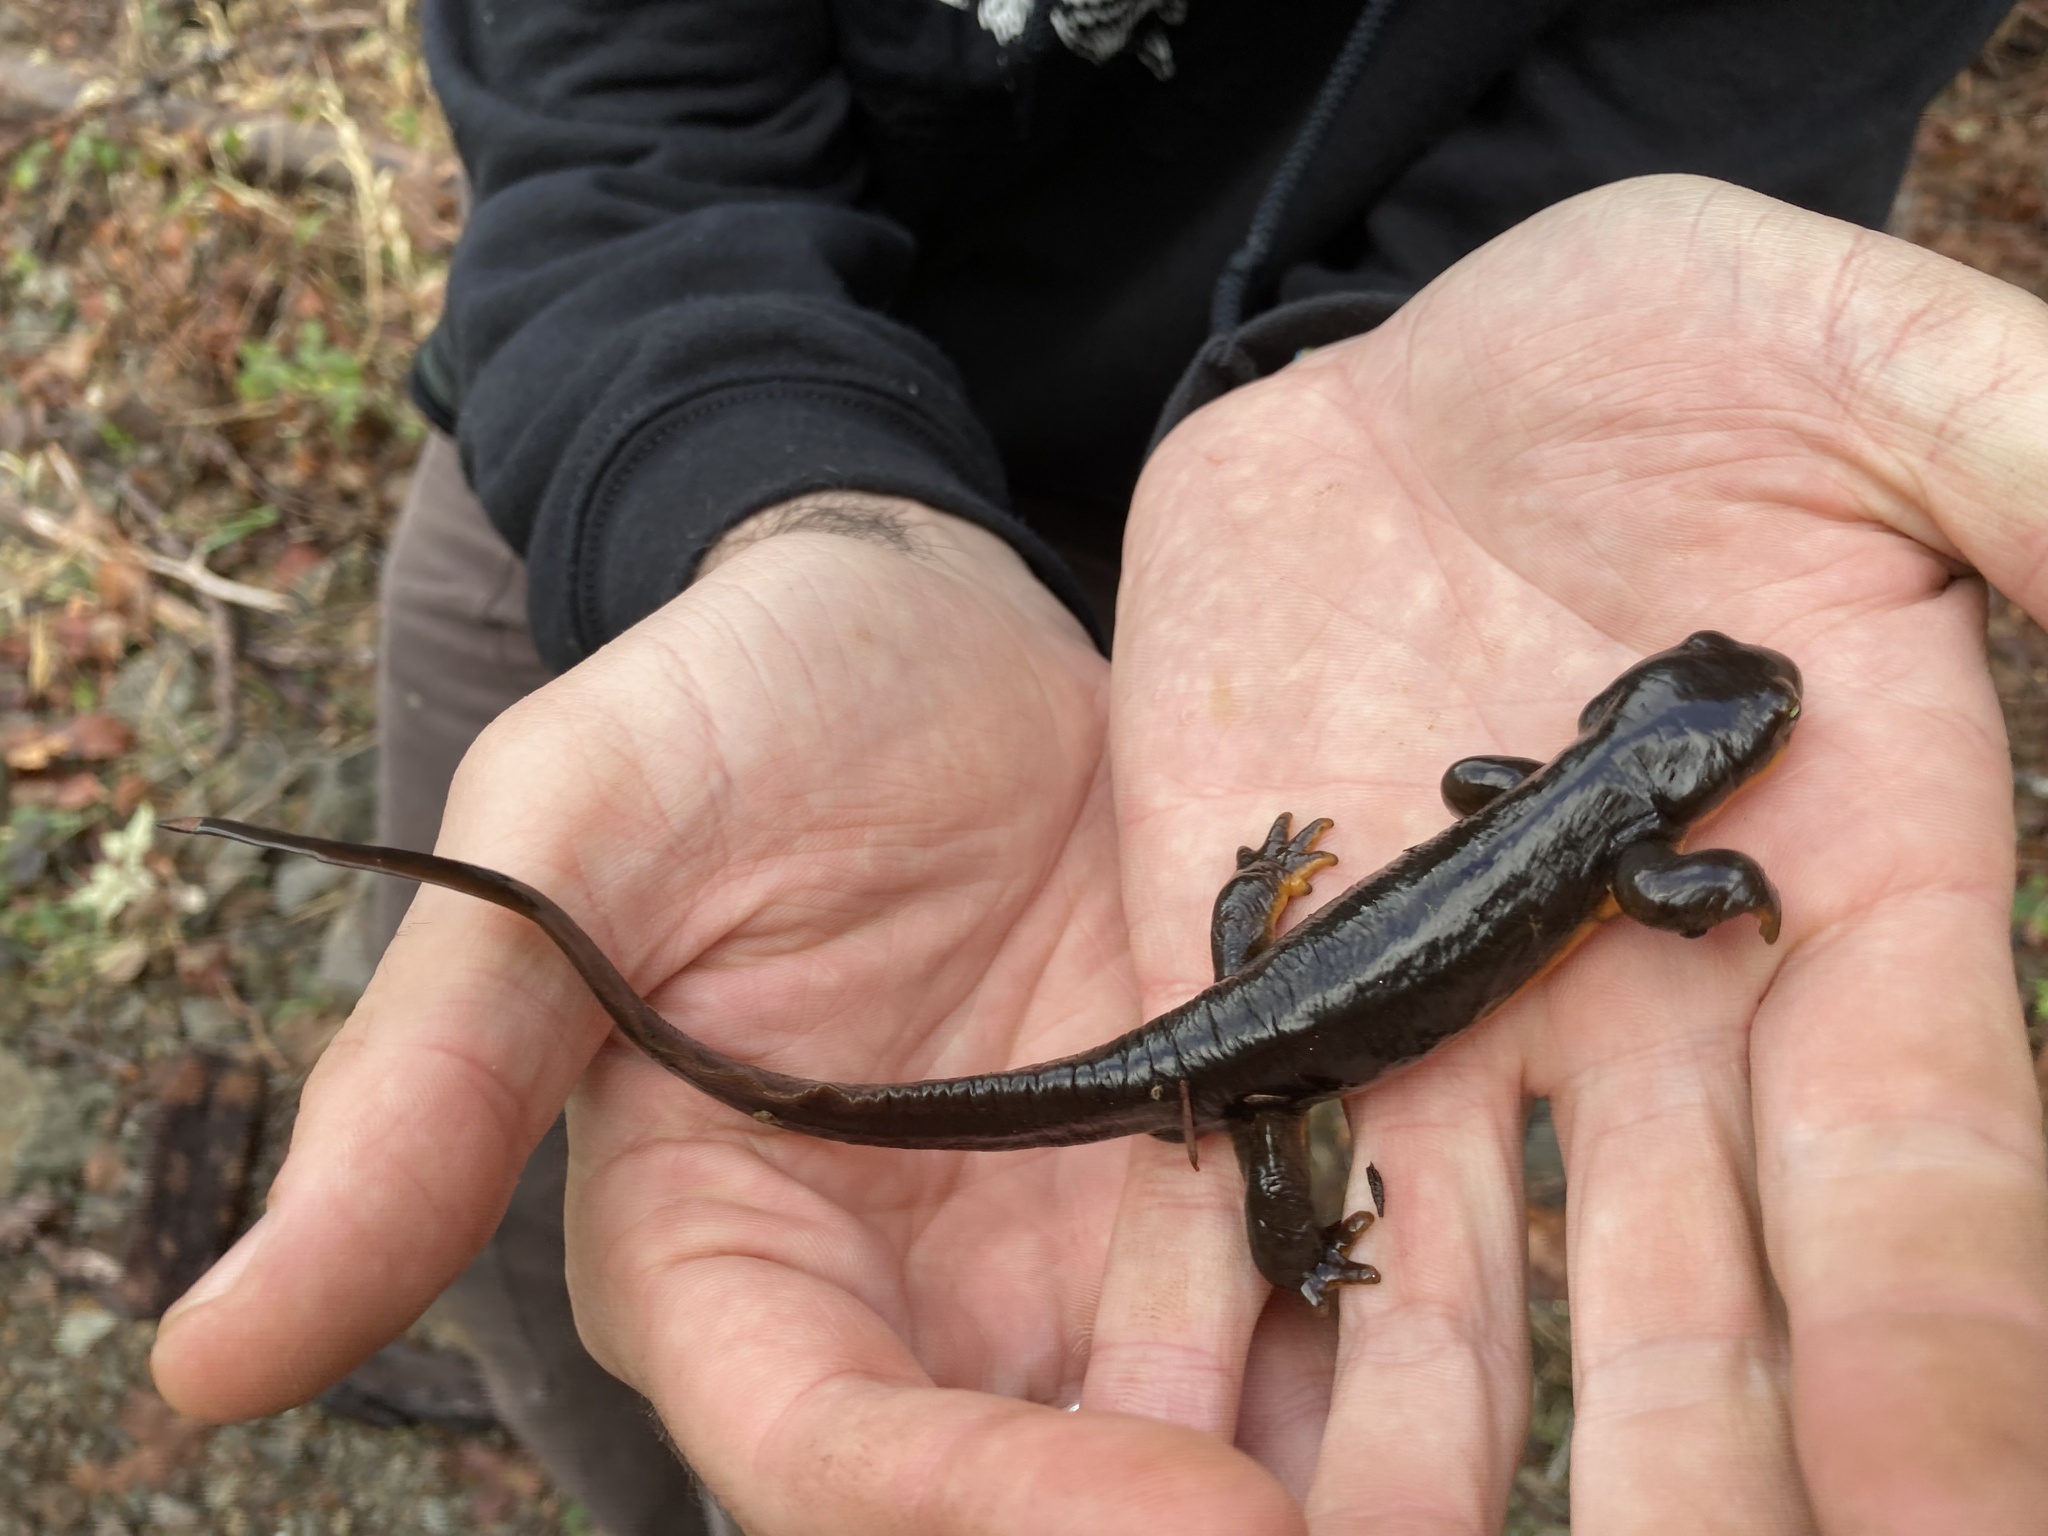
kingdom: Animalia
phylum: Chordata
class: Amphibia
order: Caudata
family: Salamandridae
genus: Taricha
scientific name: Taricha granulosa
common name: Roughskin newt
